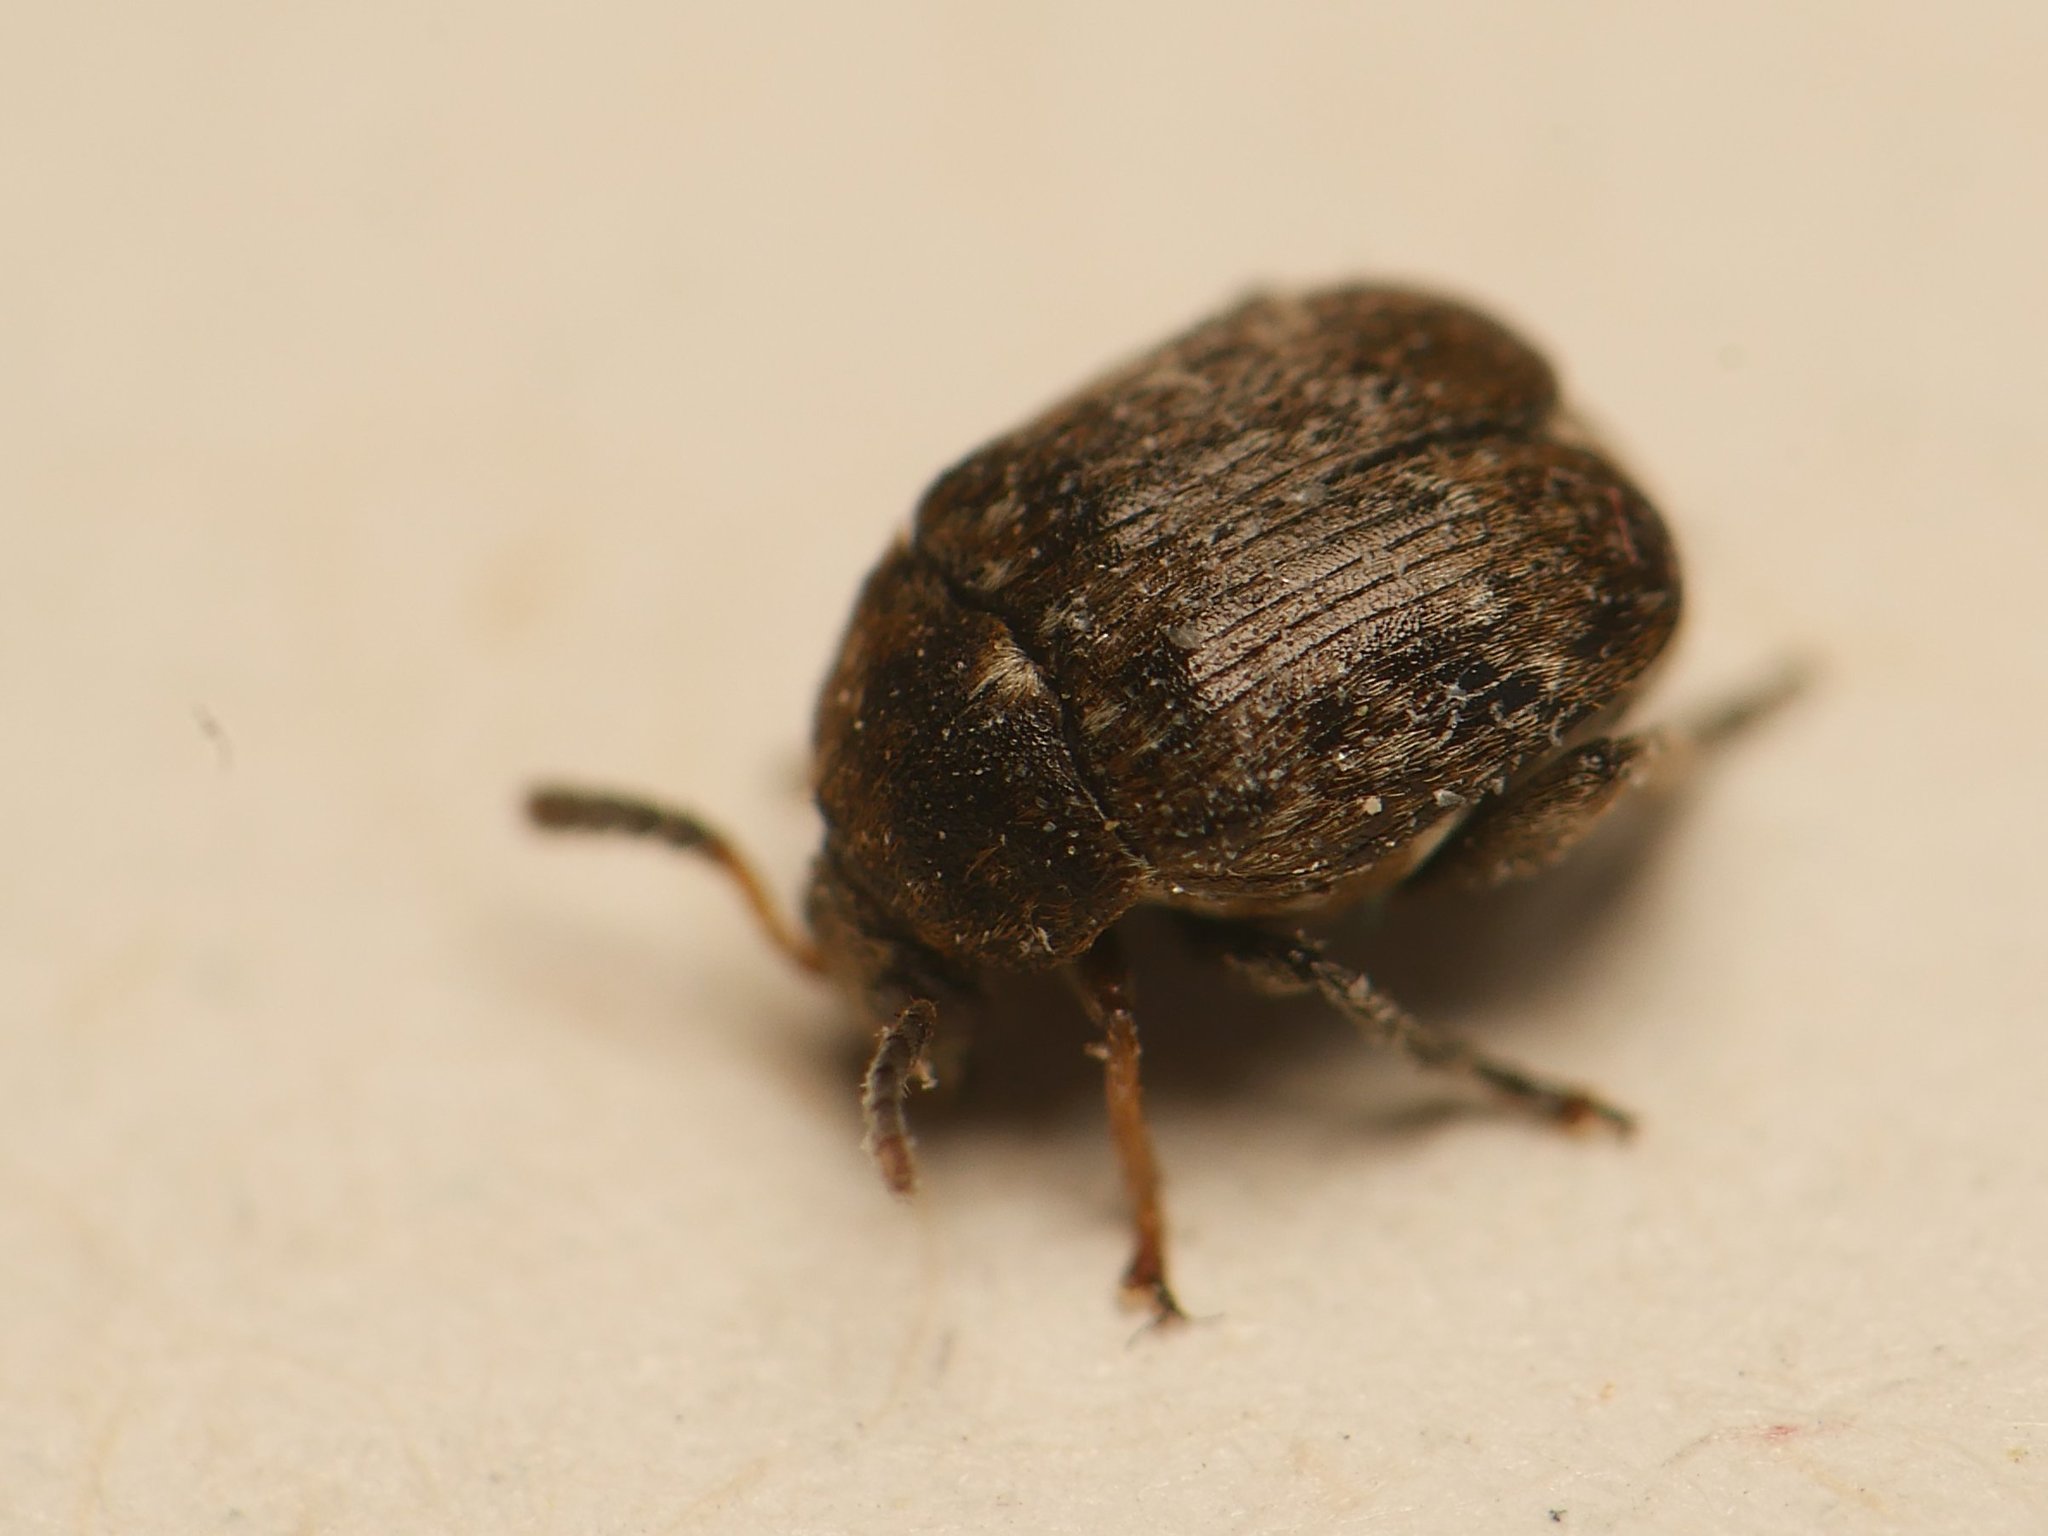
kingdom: Animalia
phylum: Arthropoda
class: Insecta
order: Coleoptera
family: Chrysomelidae
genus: Bruchus
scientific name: Bruchus brachialis
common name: Vetch bruchid
